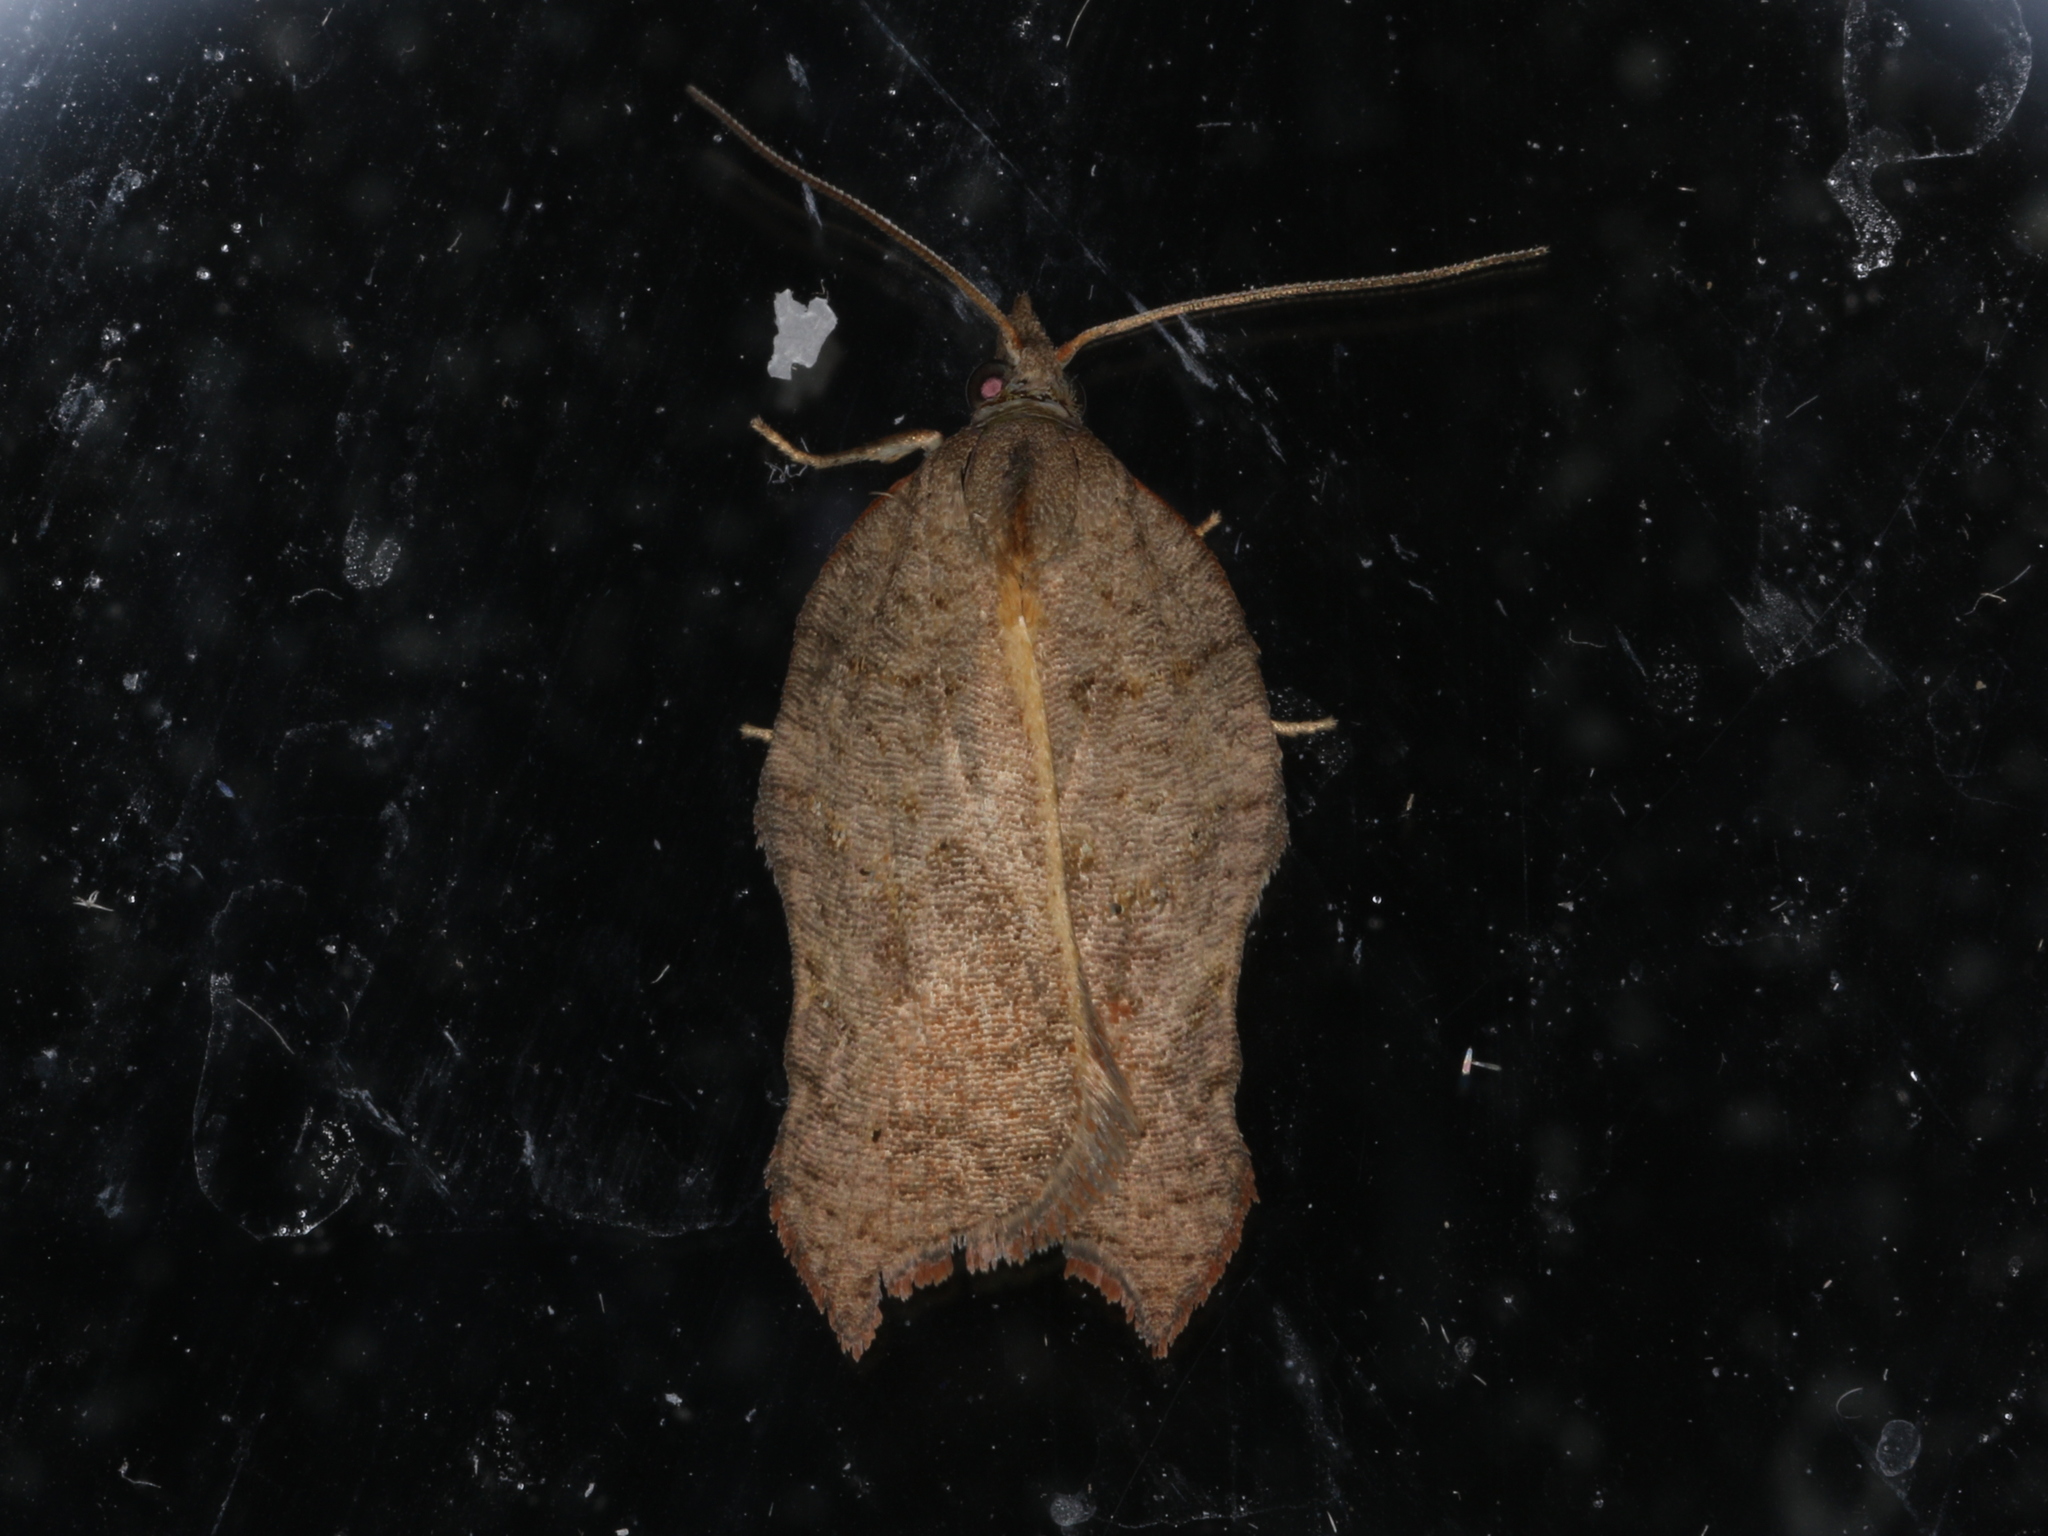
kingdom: Animalia
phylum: Arthropoda
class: Insecta
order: Lepidoptera
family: Tortricidae
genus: Acleris
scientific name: Acleris emargana
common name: Notch-wing button
